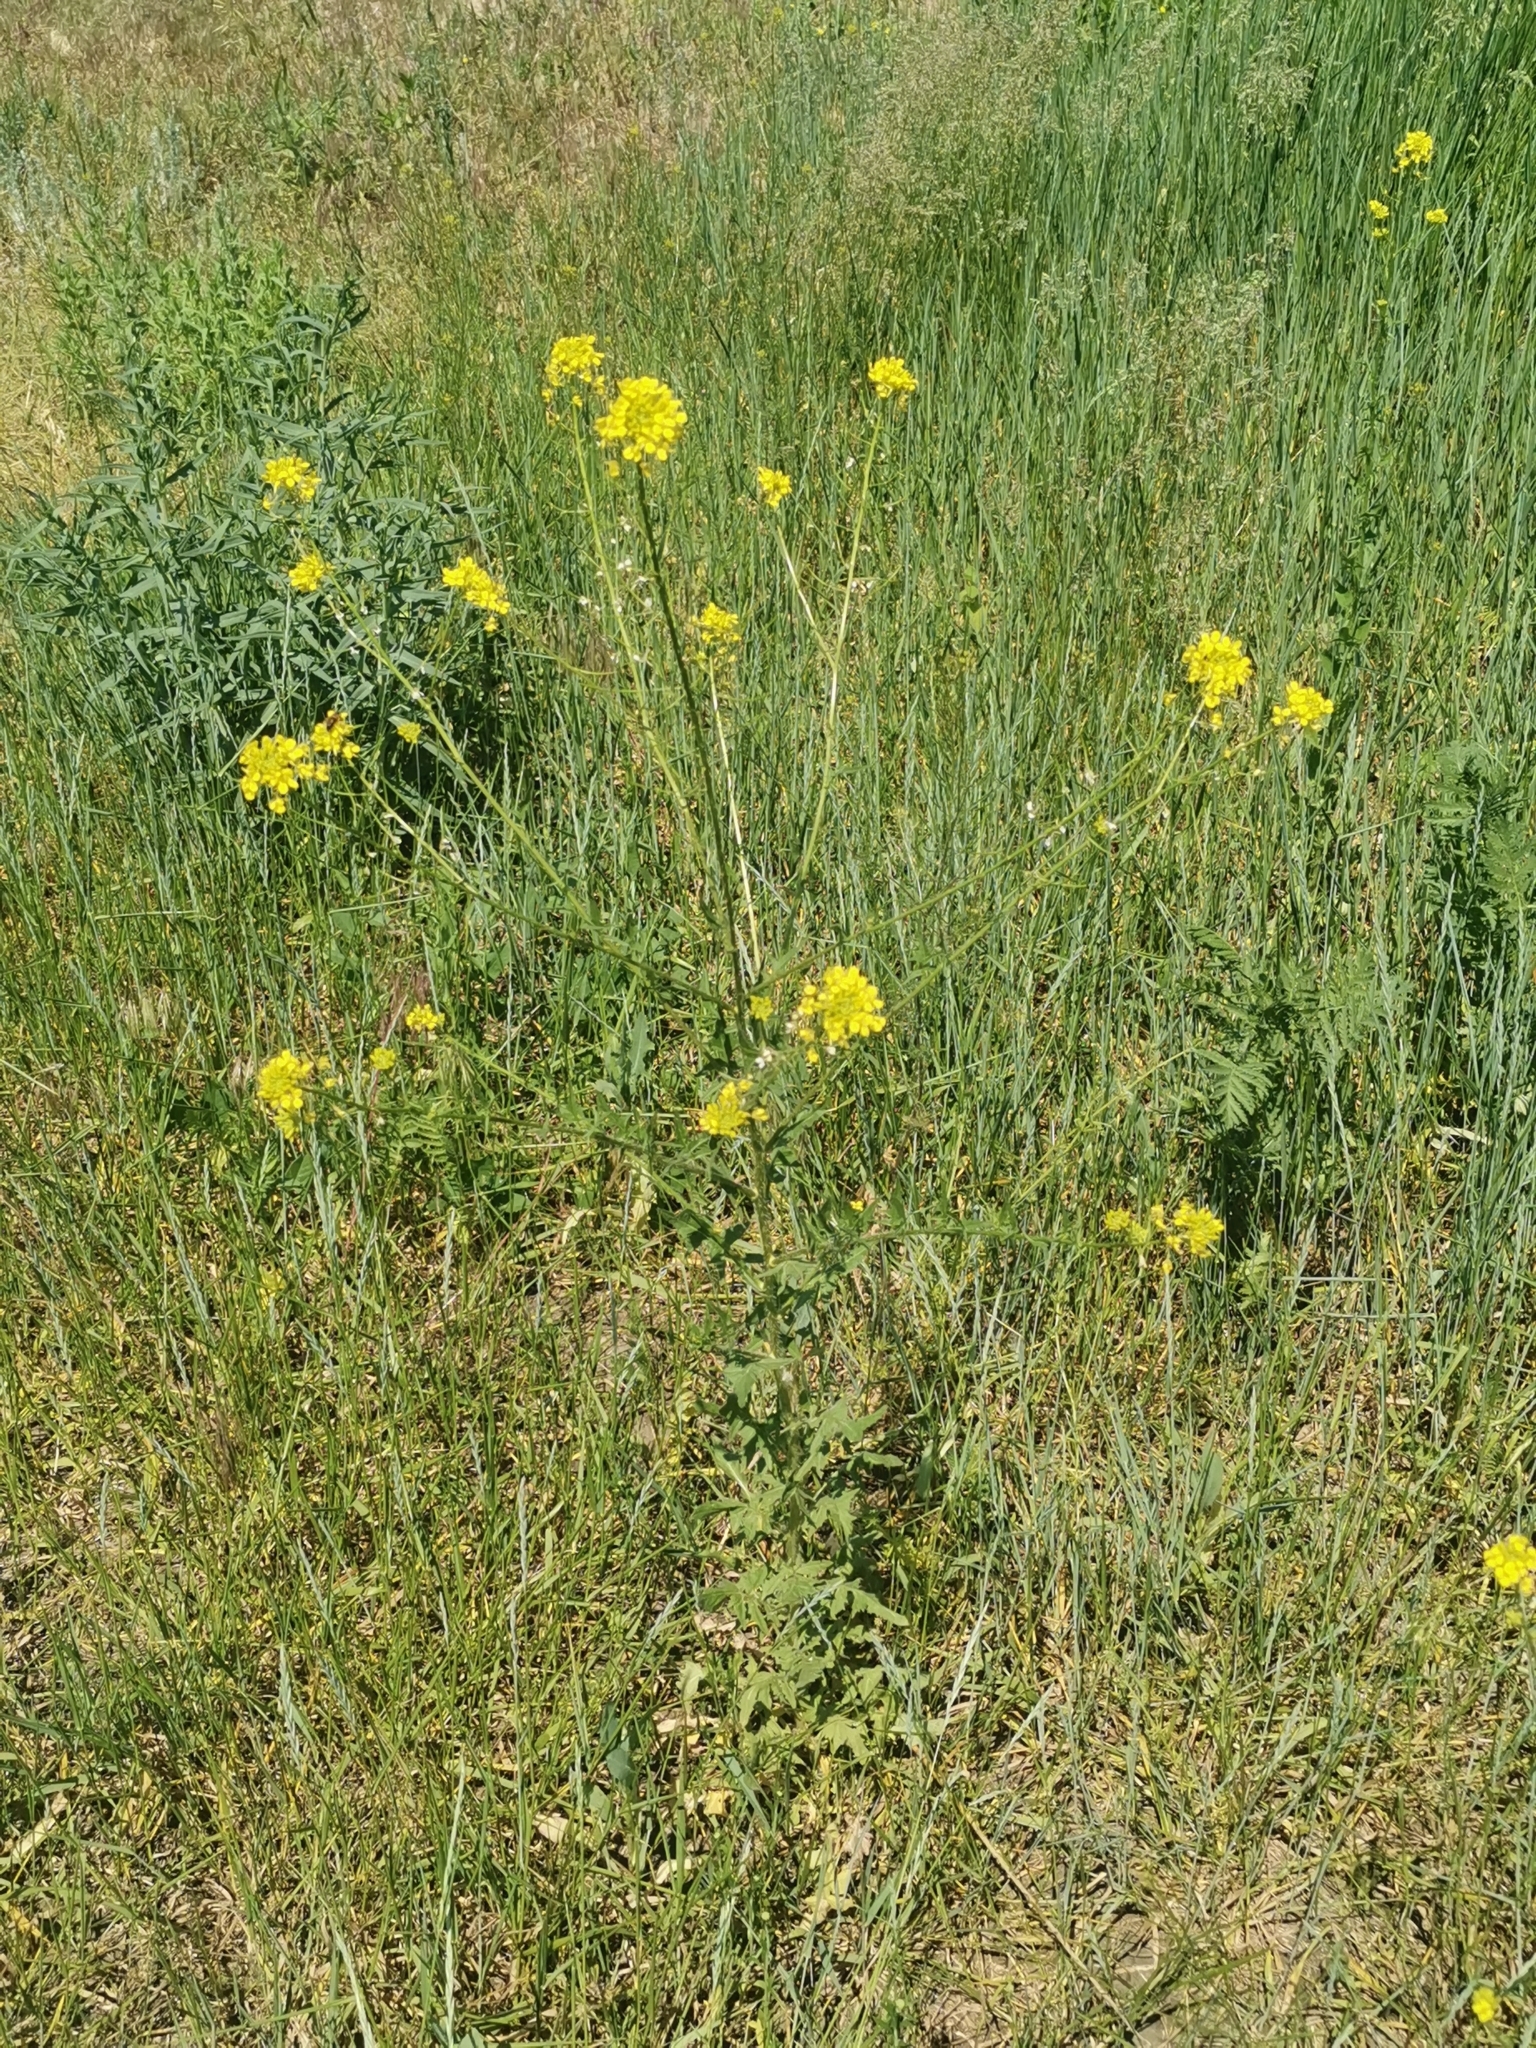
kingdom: Plantae
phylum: Tracheophyta
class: Magnoliopsida
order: Brassicales
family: Brassicaceae
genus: Sisymbrium
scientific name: Sisymbrium loeselii
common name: False london-rocket
